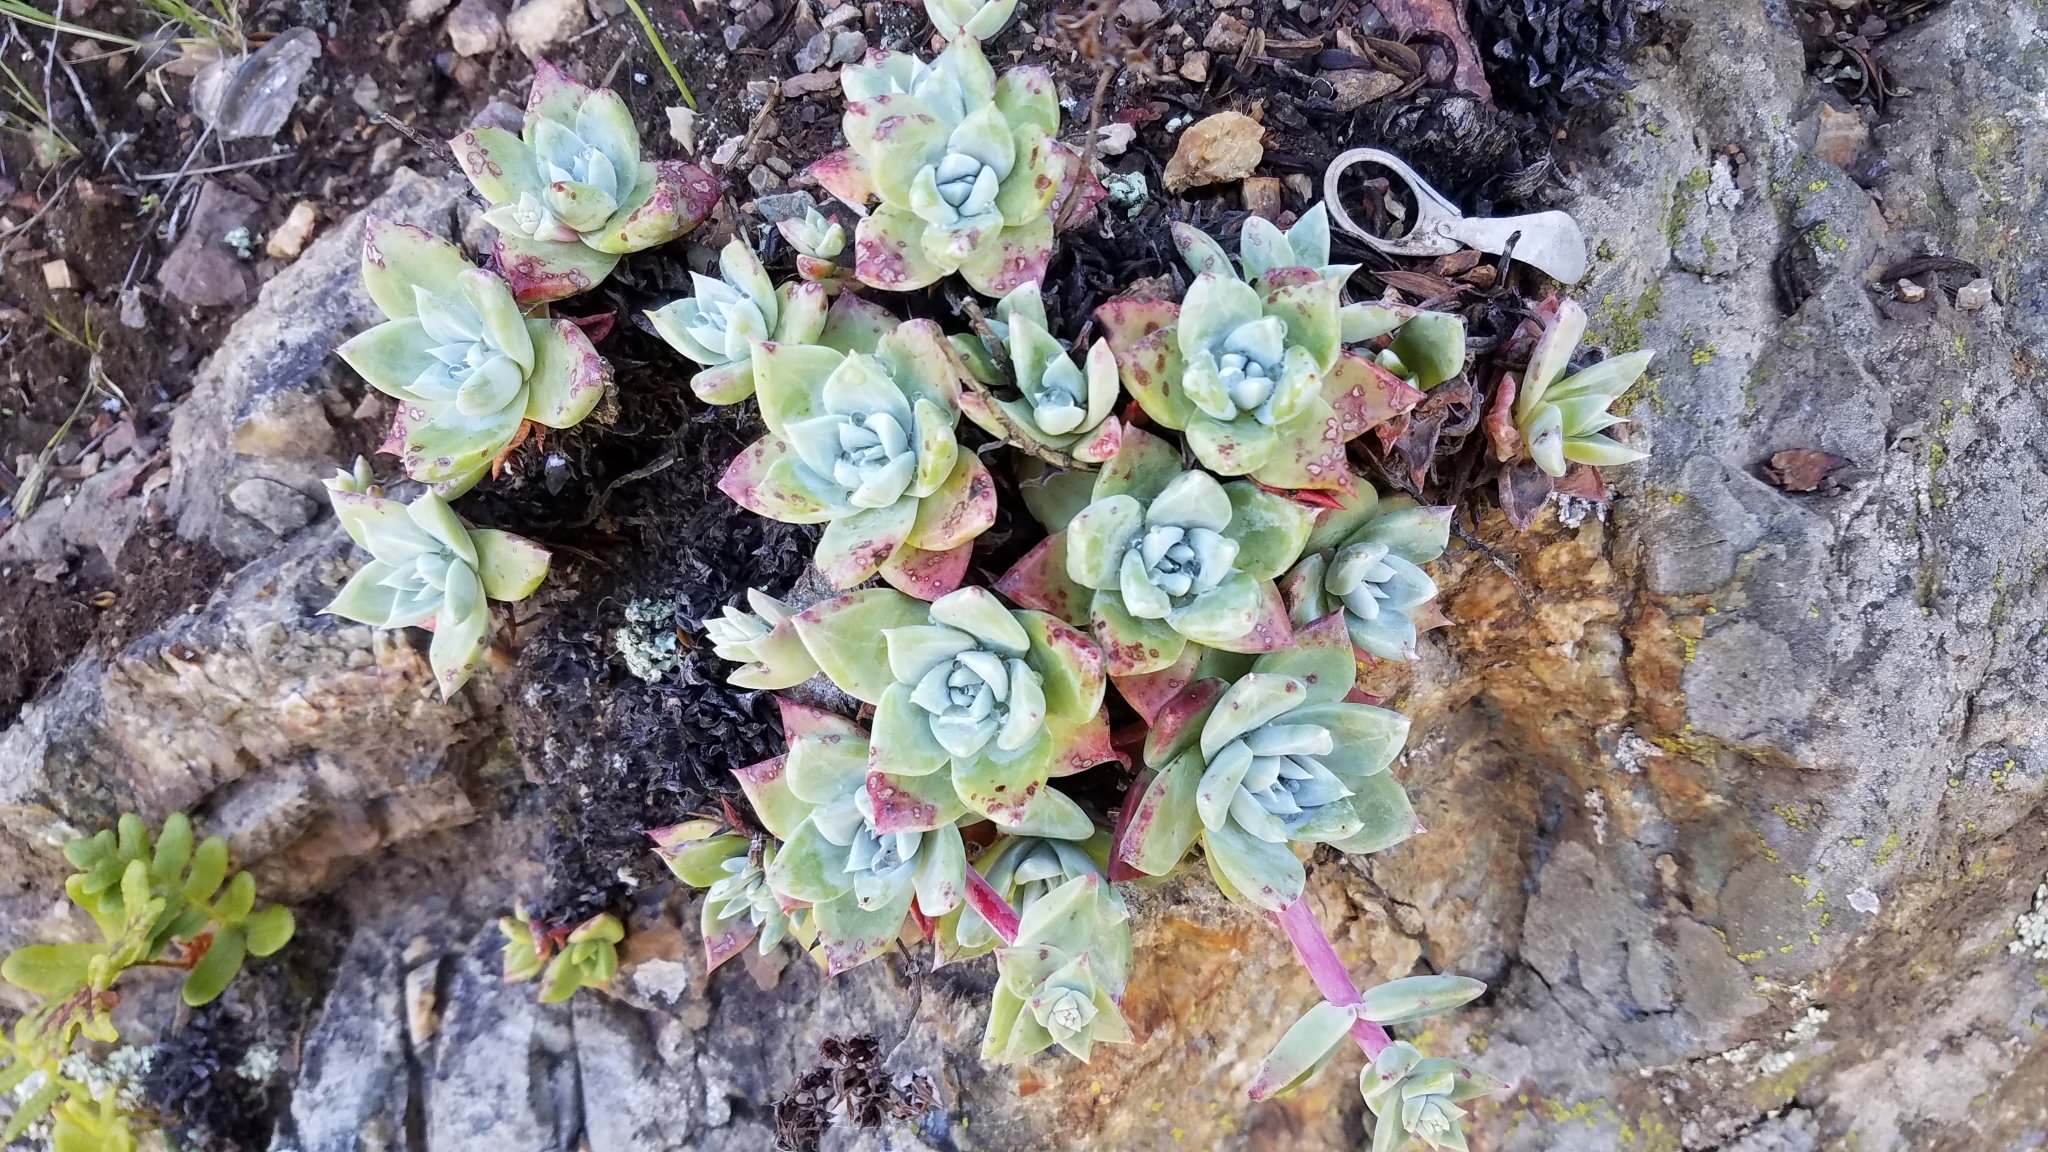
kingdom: Plantae
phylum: Tracheophyta
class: Magnoliopsida
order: Saxifragales
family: Crassulaceae
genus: Dudleya
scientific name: Dudleya farinosa
